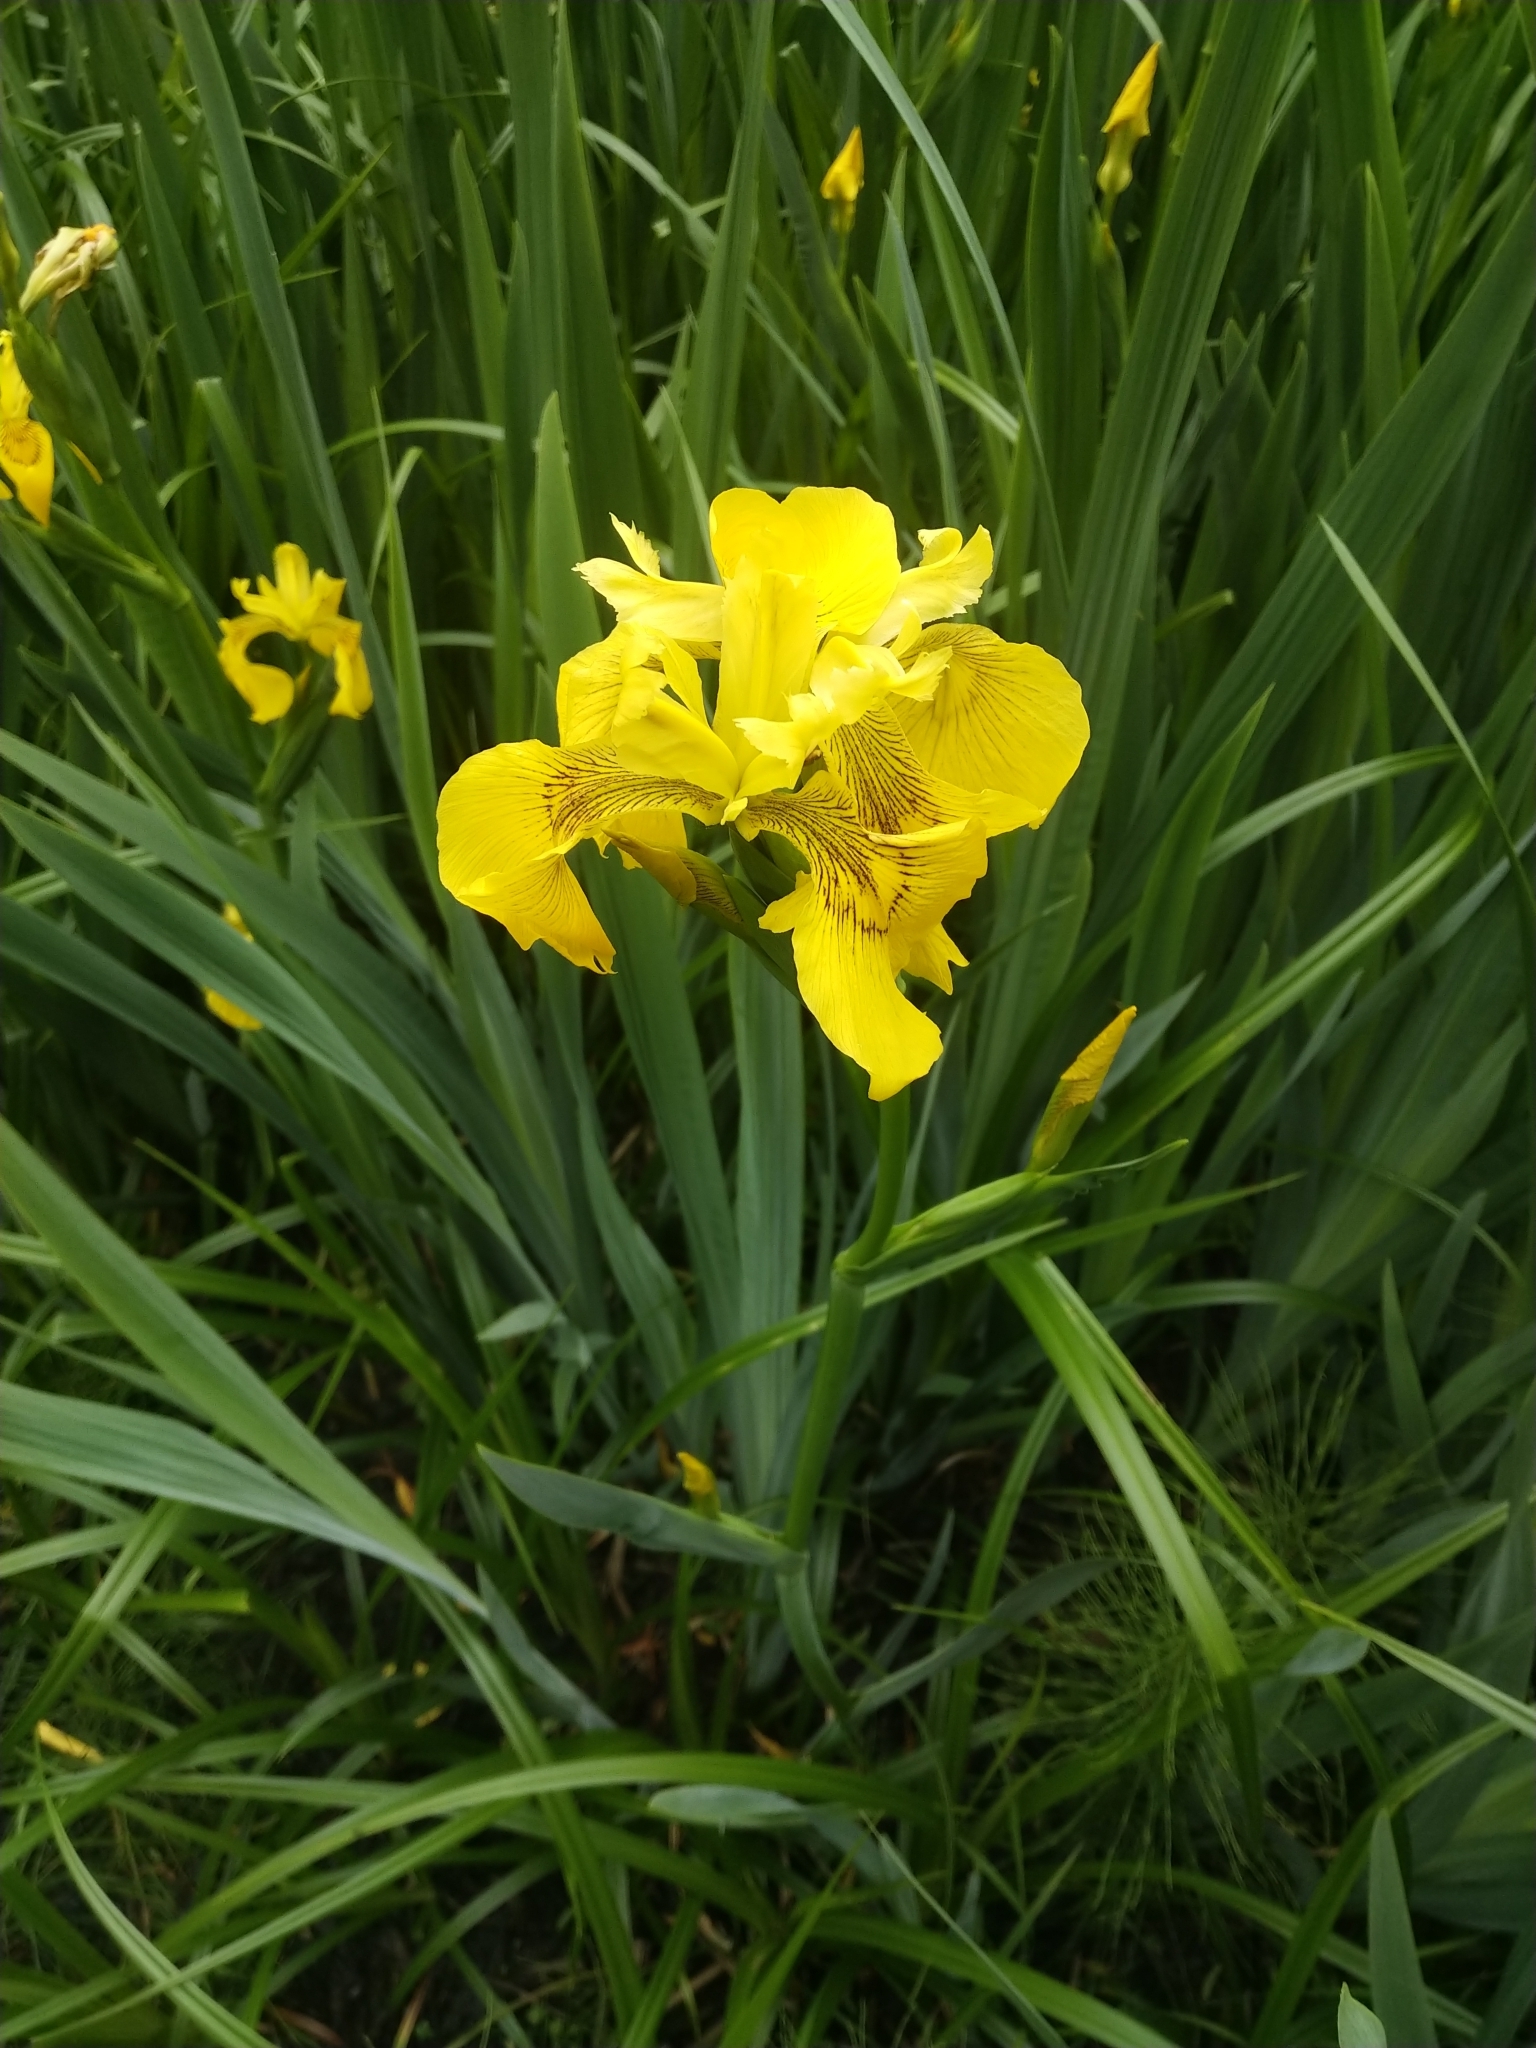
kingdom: Plantae
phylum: Tracheophyta
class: Liliopsida
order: Asparagales
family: Iridaceae
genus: Iris
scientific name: Iris pseudacorus
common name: Yellow flag
